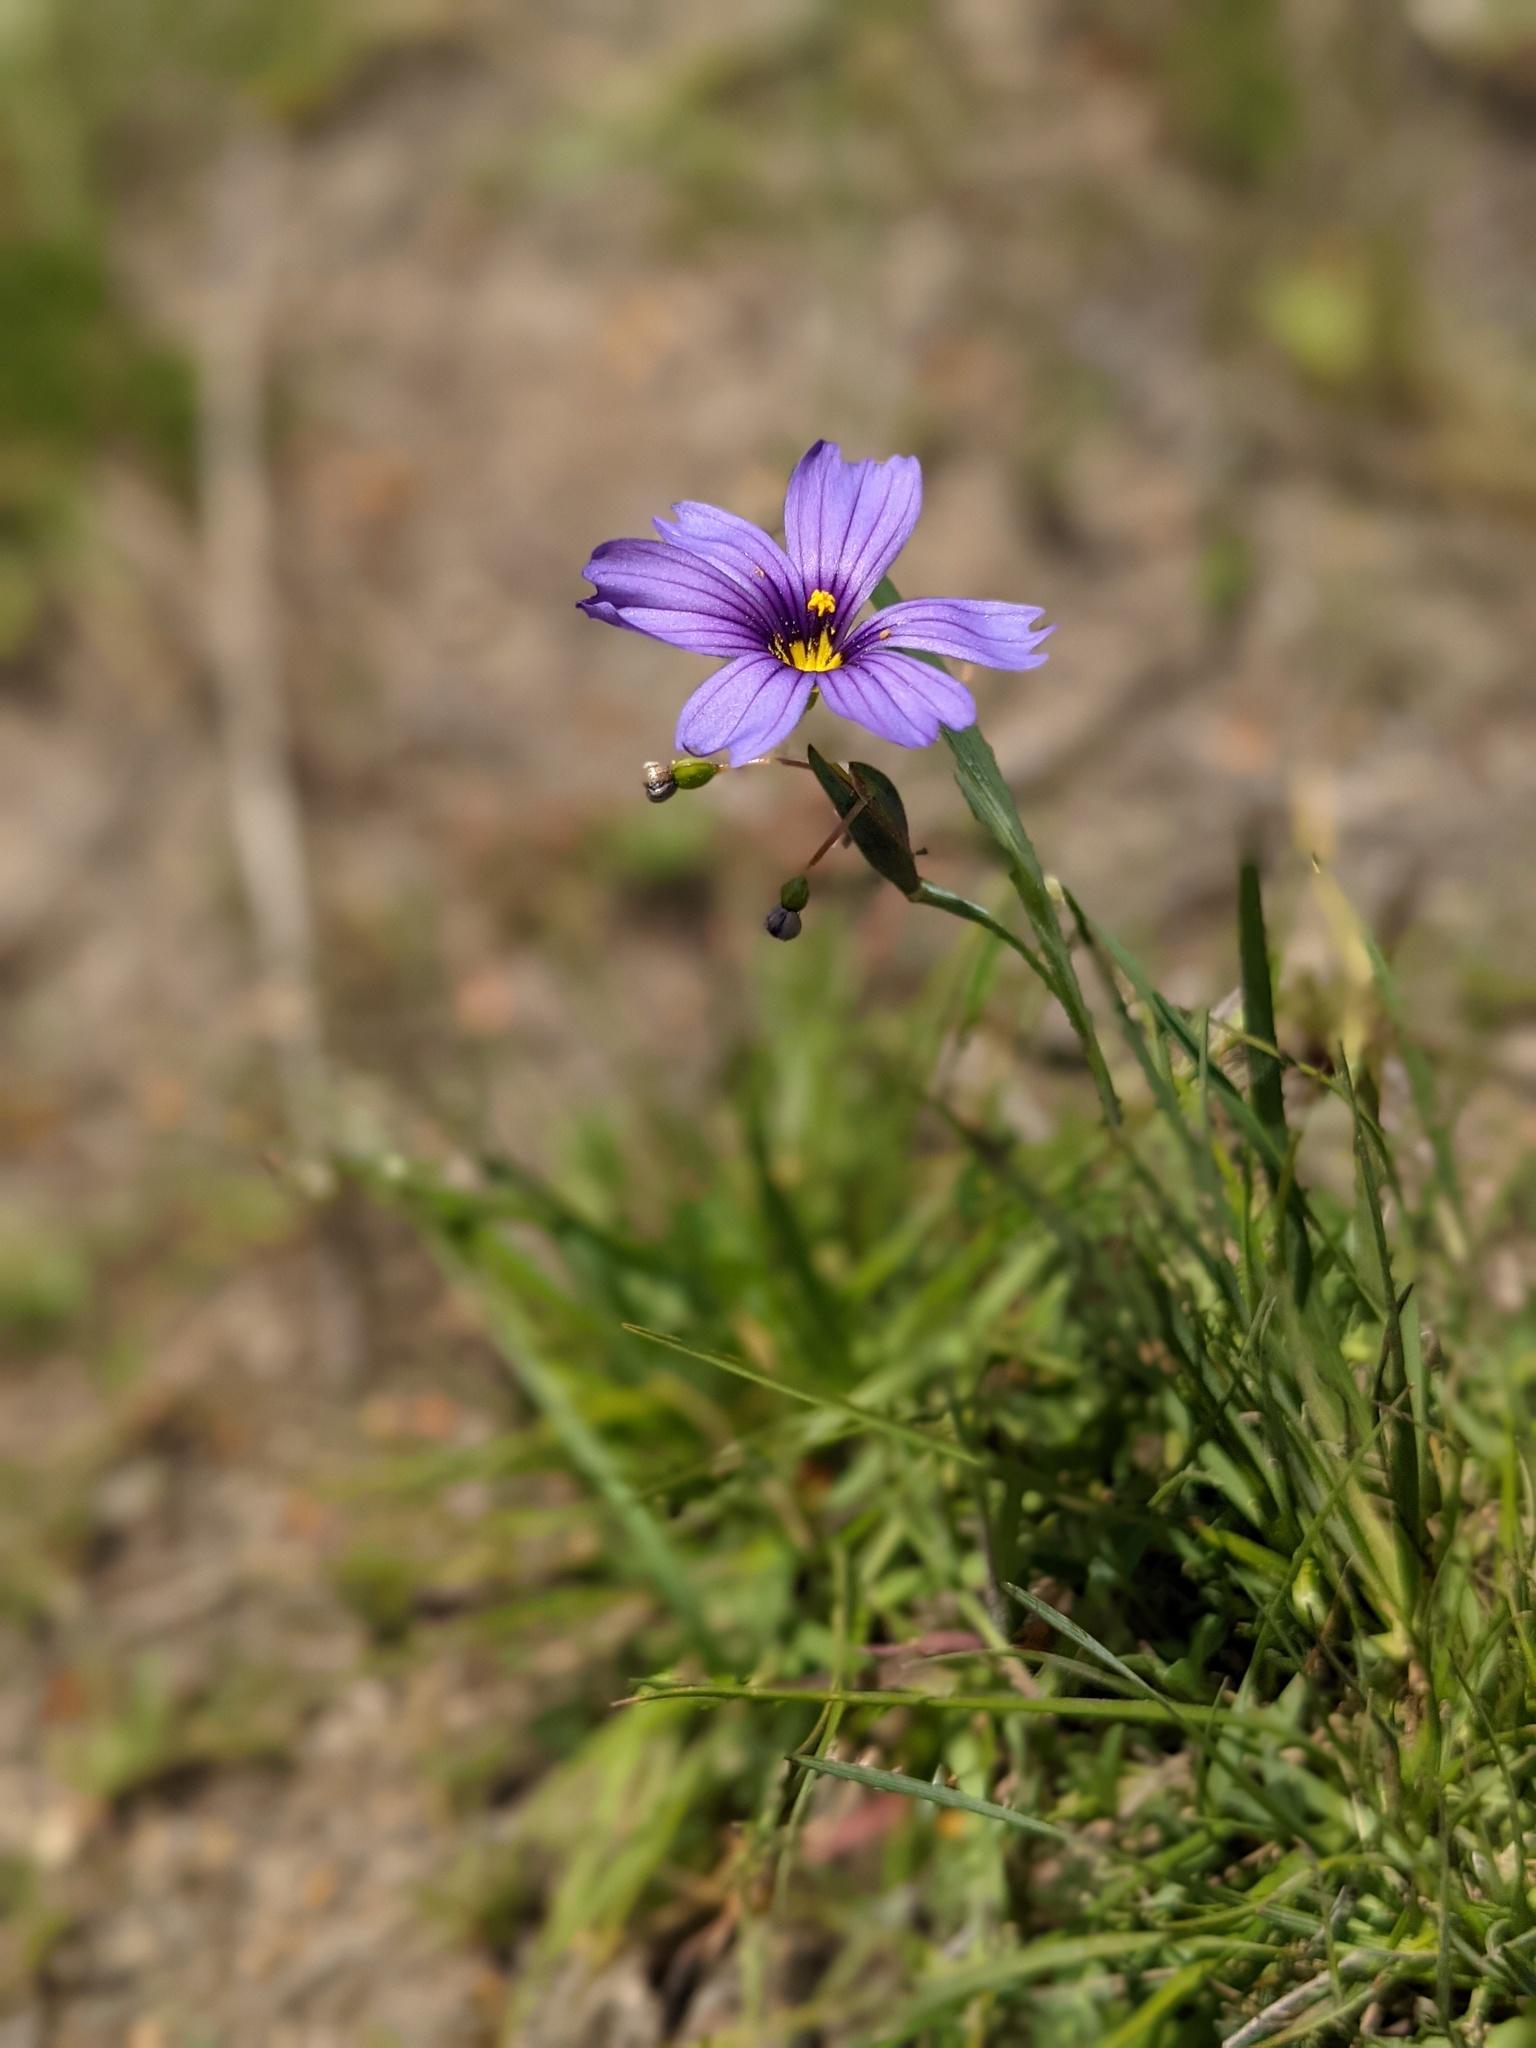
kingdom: Plantae
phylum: Tracheophyta
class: Liliopsida
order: Asparagales
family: Iridaceae
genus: Sisyrinchium
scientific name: Sisyrinchium bellum
